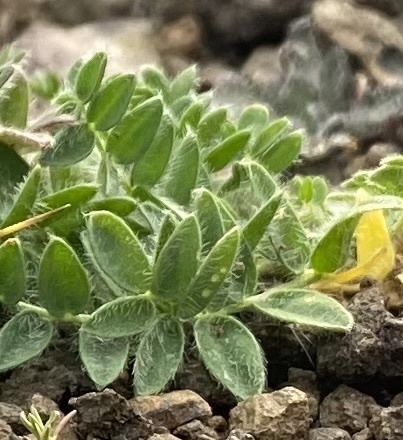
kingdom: Plantae
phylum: Tracheophyta
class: Magnoliopsida
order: Fabales
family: Fabaceae
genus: Oxytropis
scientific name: Oxytropis
